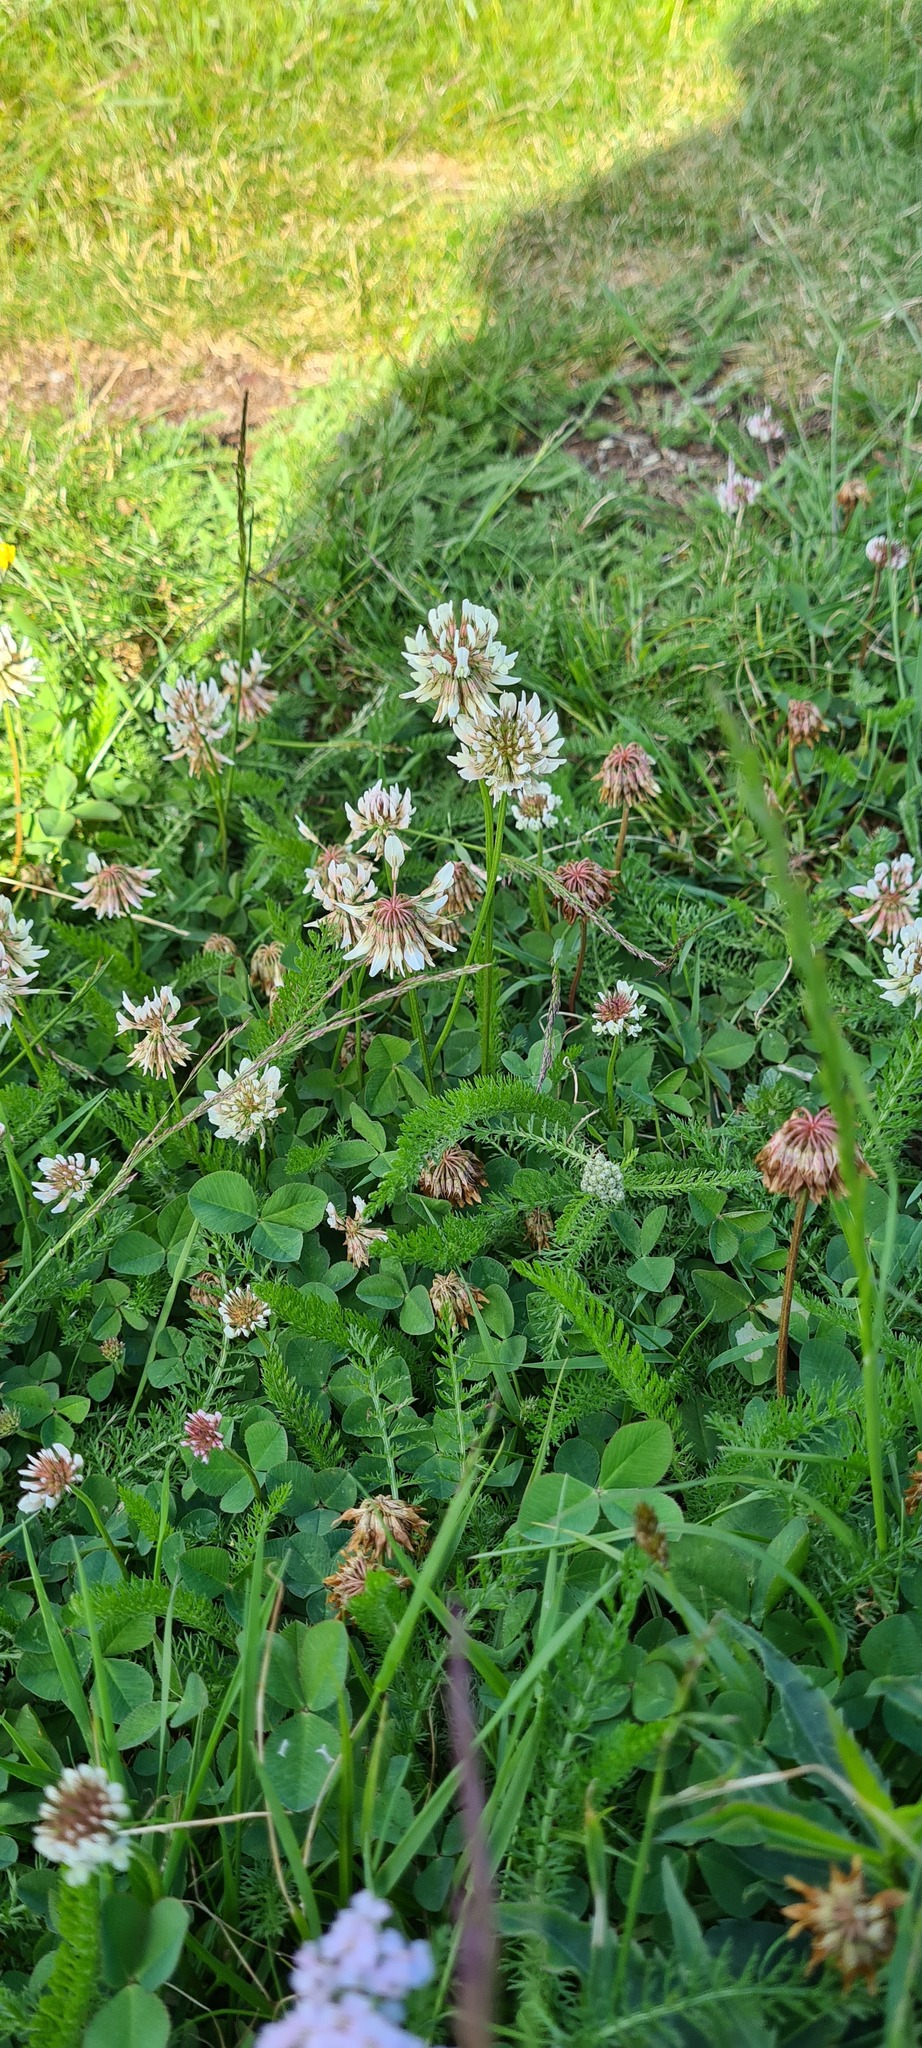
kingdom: Plantae
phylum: Tracheophyta
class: Magnoliopsida
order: Fabales
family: Fabaceae
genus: Trifolium
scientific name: Trifolium repens
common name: White clover
